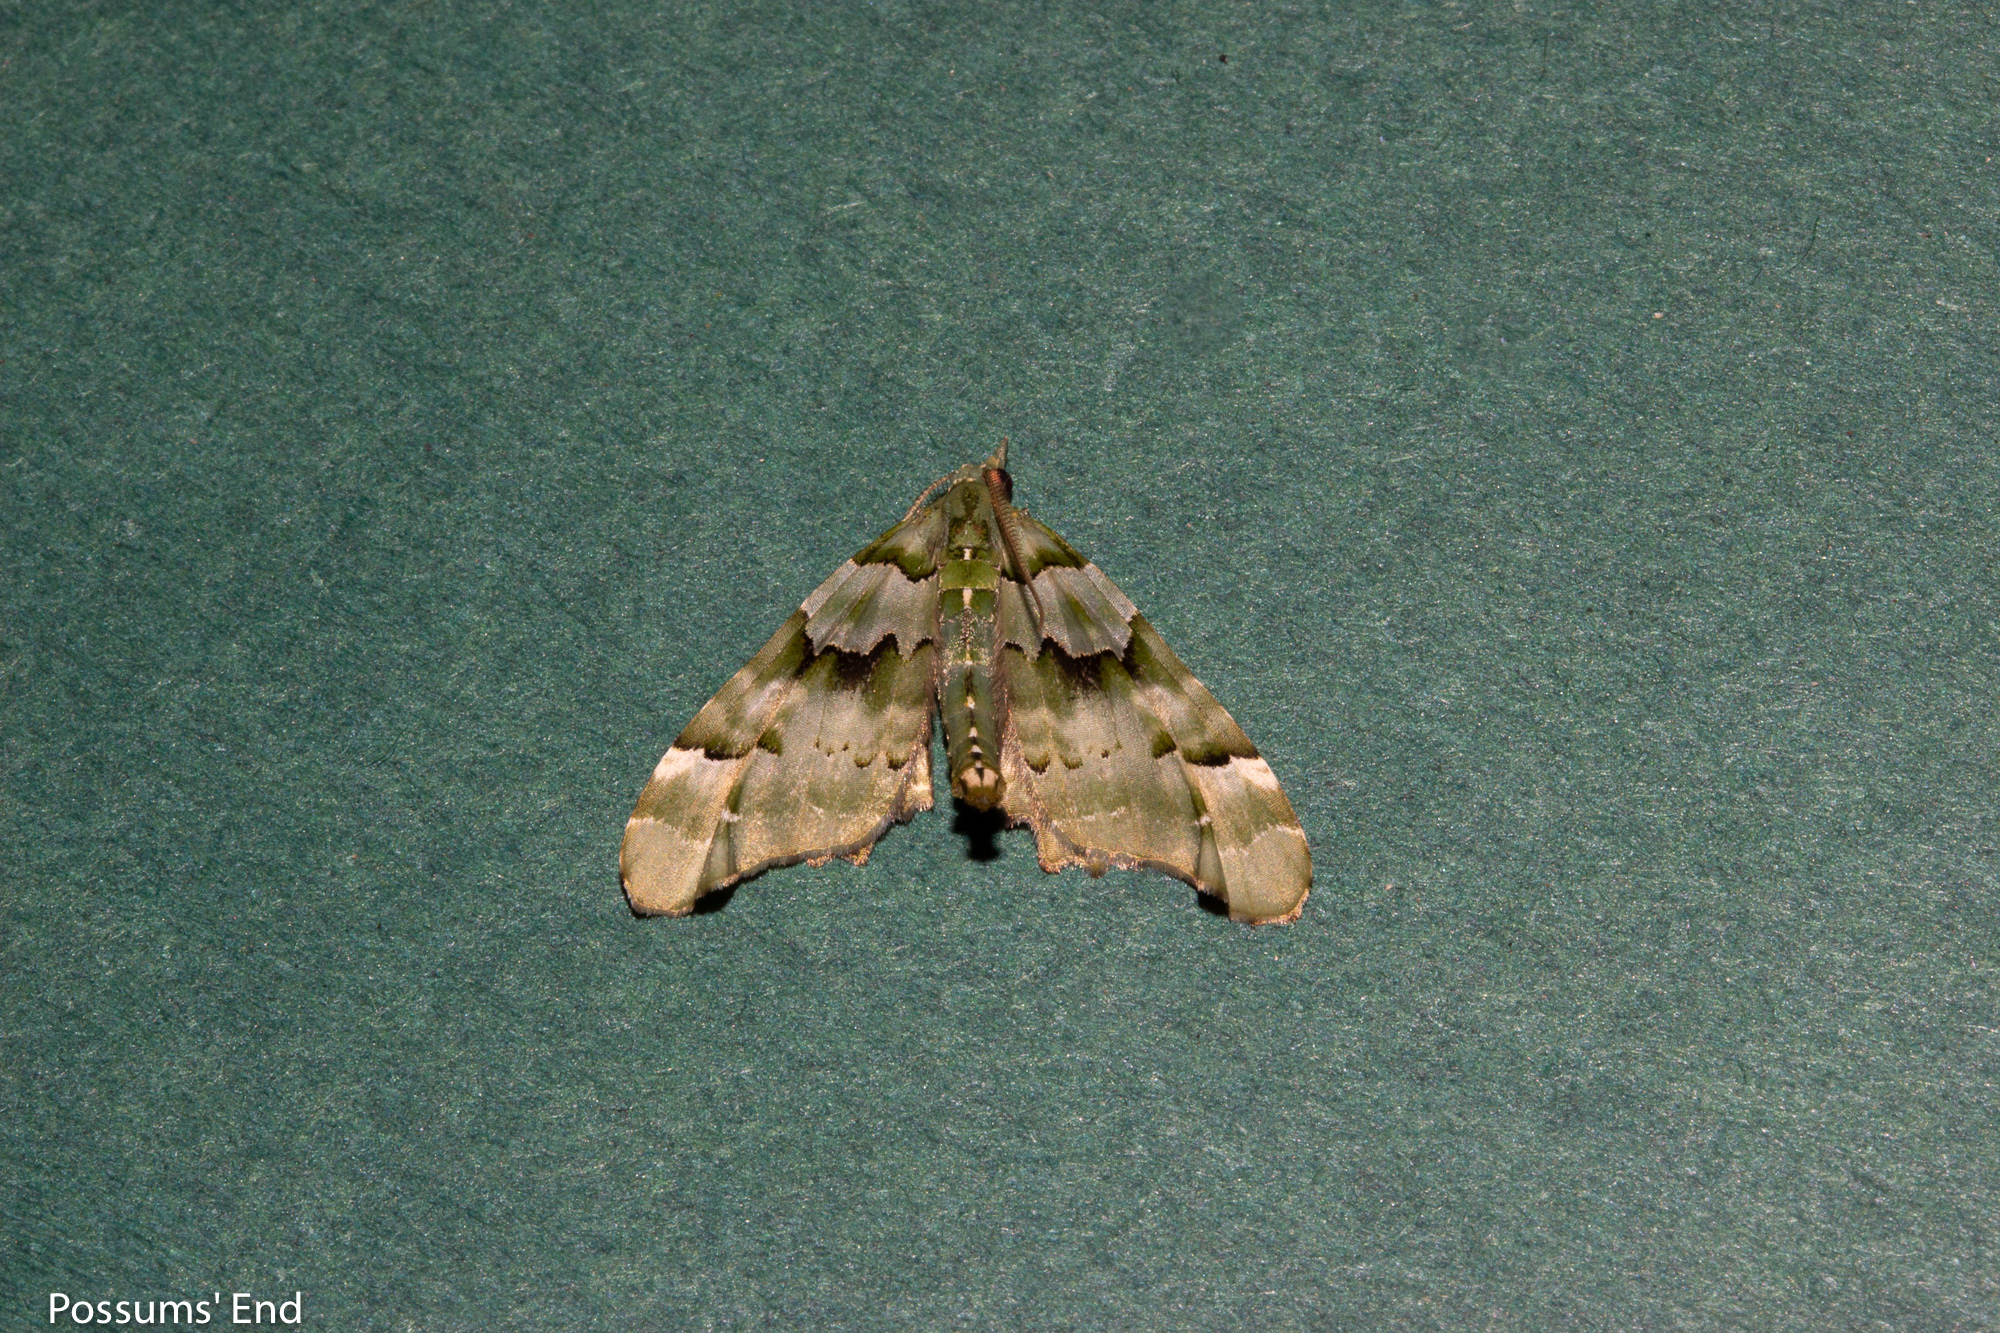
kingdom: Animalia
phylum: Arthropoda
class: Insecta
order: Lepidoptera
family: Geometridae
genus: Elvia
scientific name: Elvia glaucata
